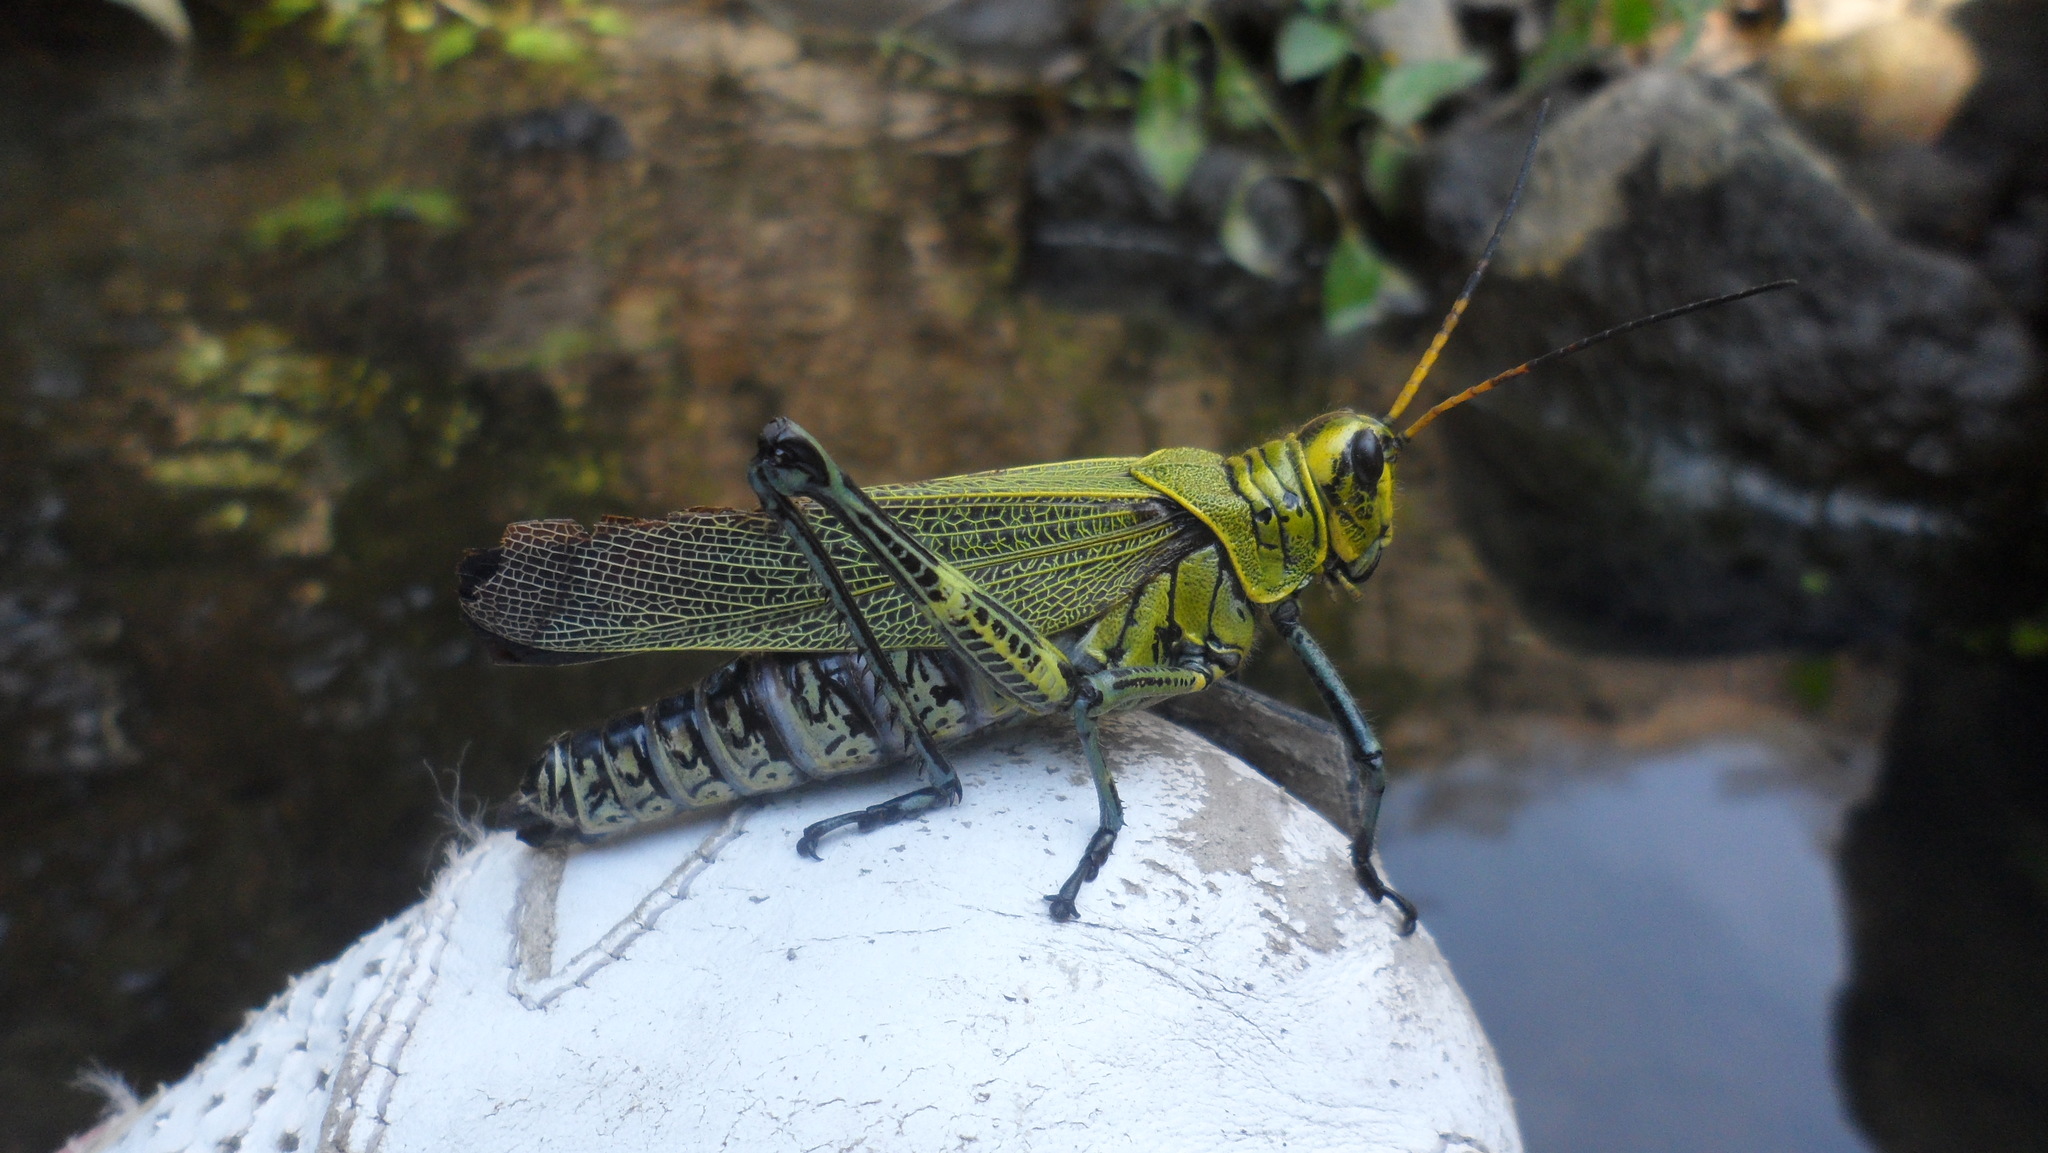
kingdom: Animalia
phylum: Arthropoda
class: Insecta
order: Orthoptera
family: Romaleidae
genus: Chromacris
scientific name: Chromacris colorata
